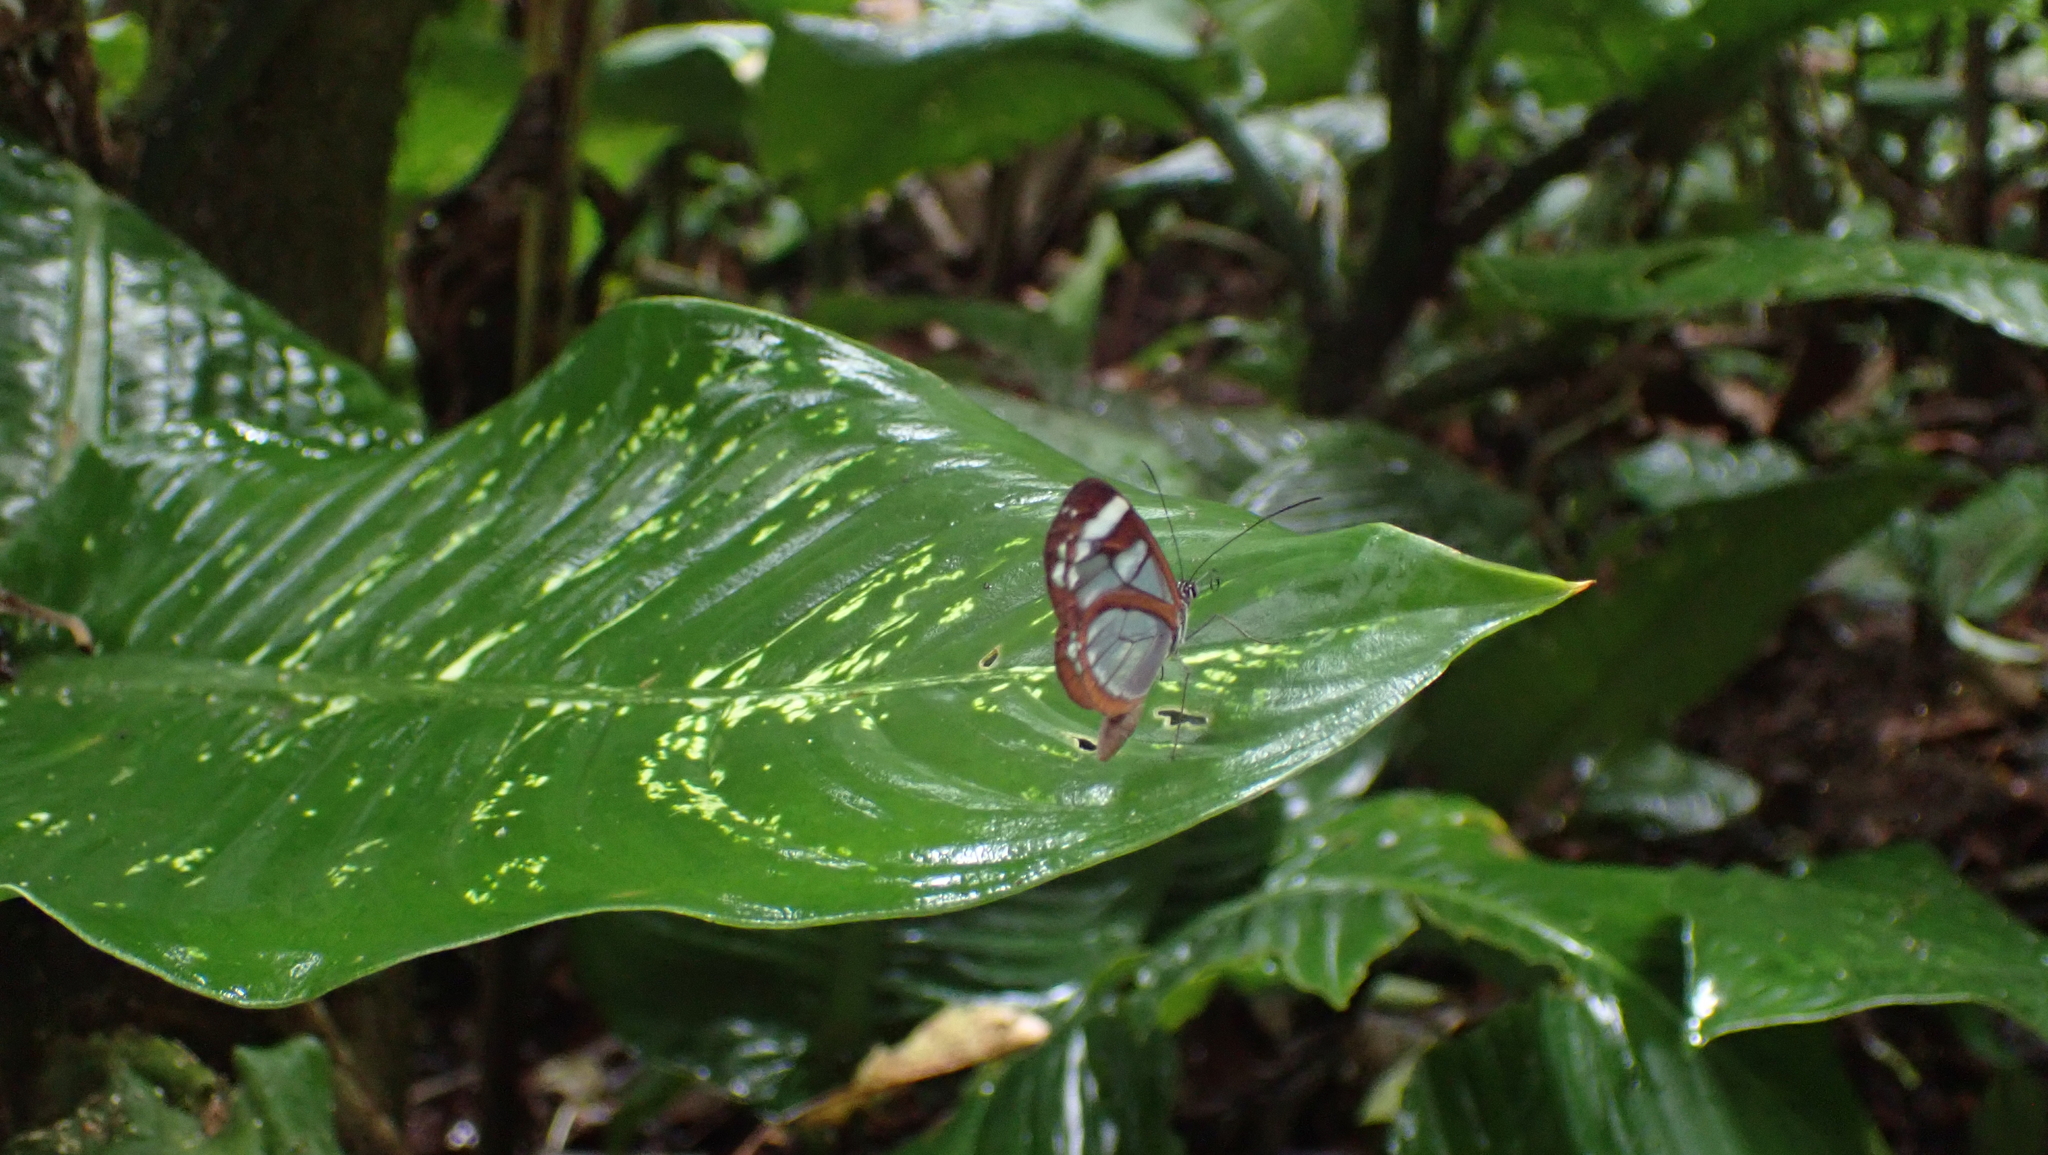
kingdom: Animalia
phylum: Arthropoda
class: Insecta
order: Lepidoptera
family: Nymphalidae
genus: Oleria
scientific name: Oleria rubescens
